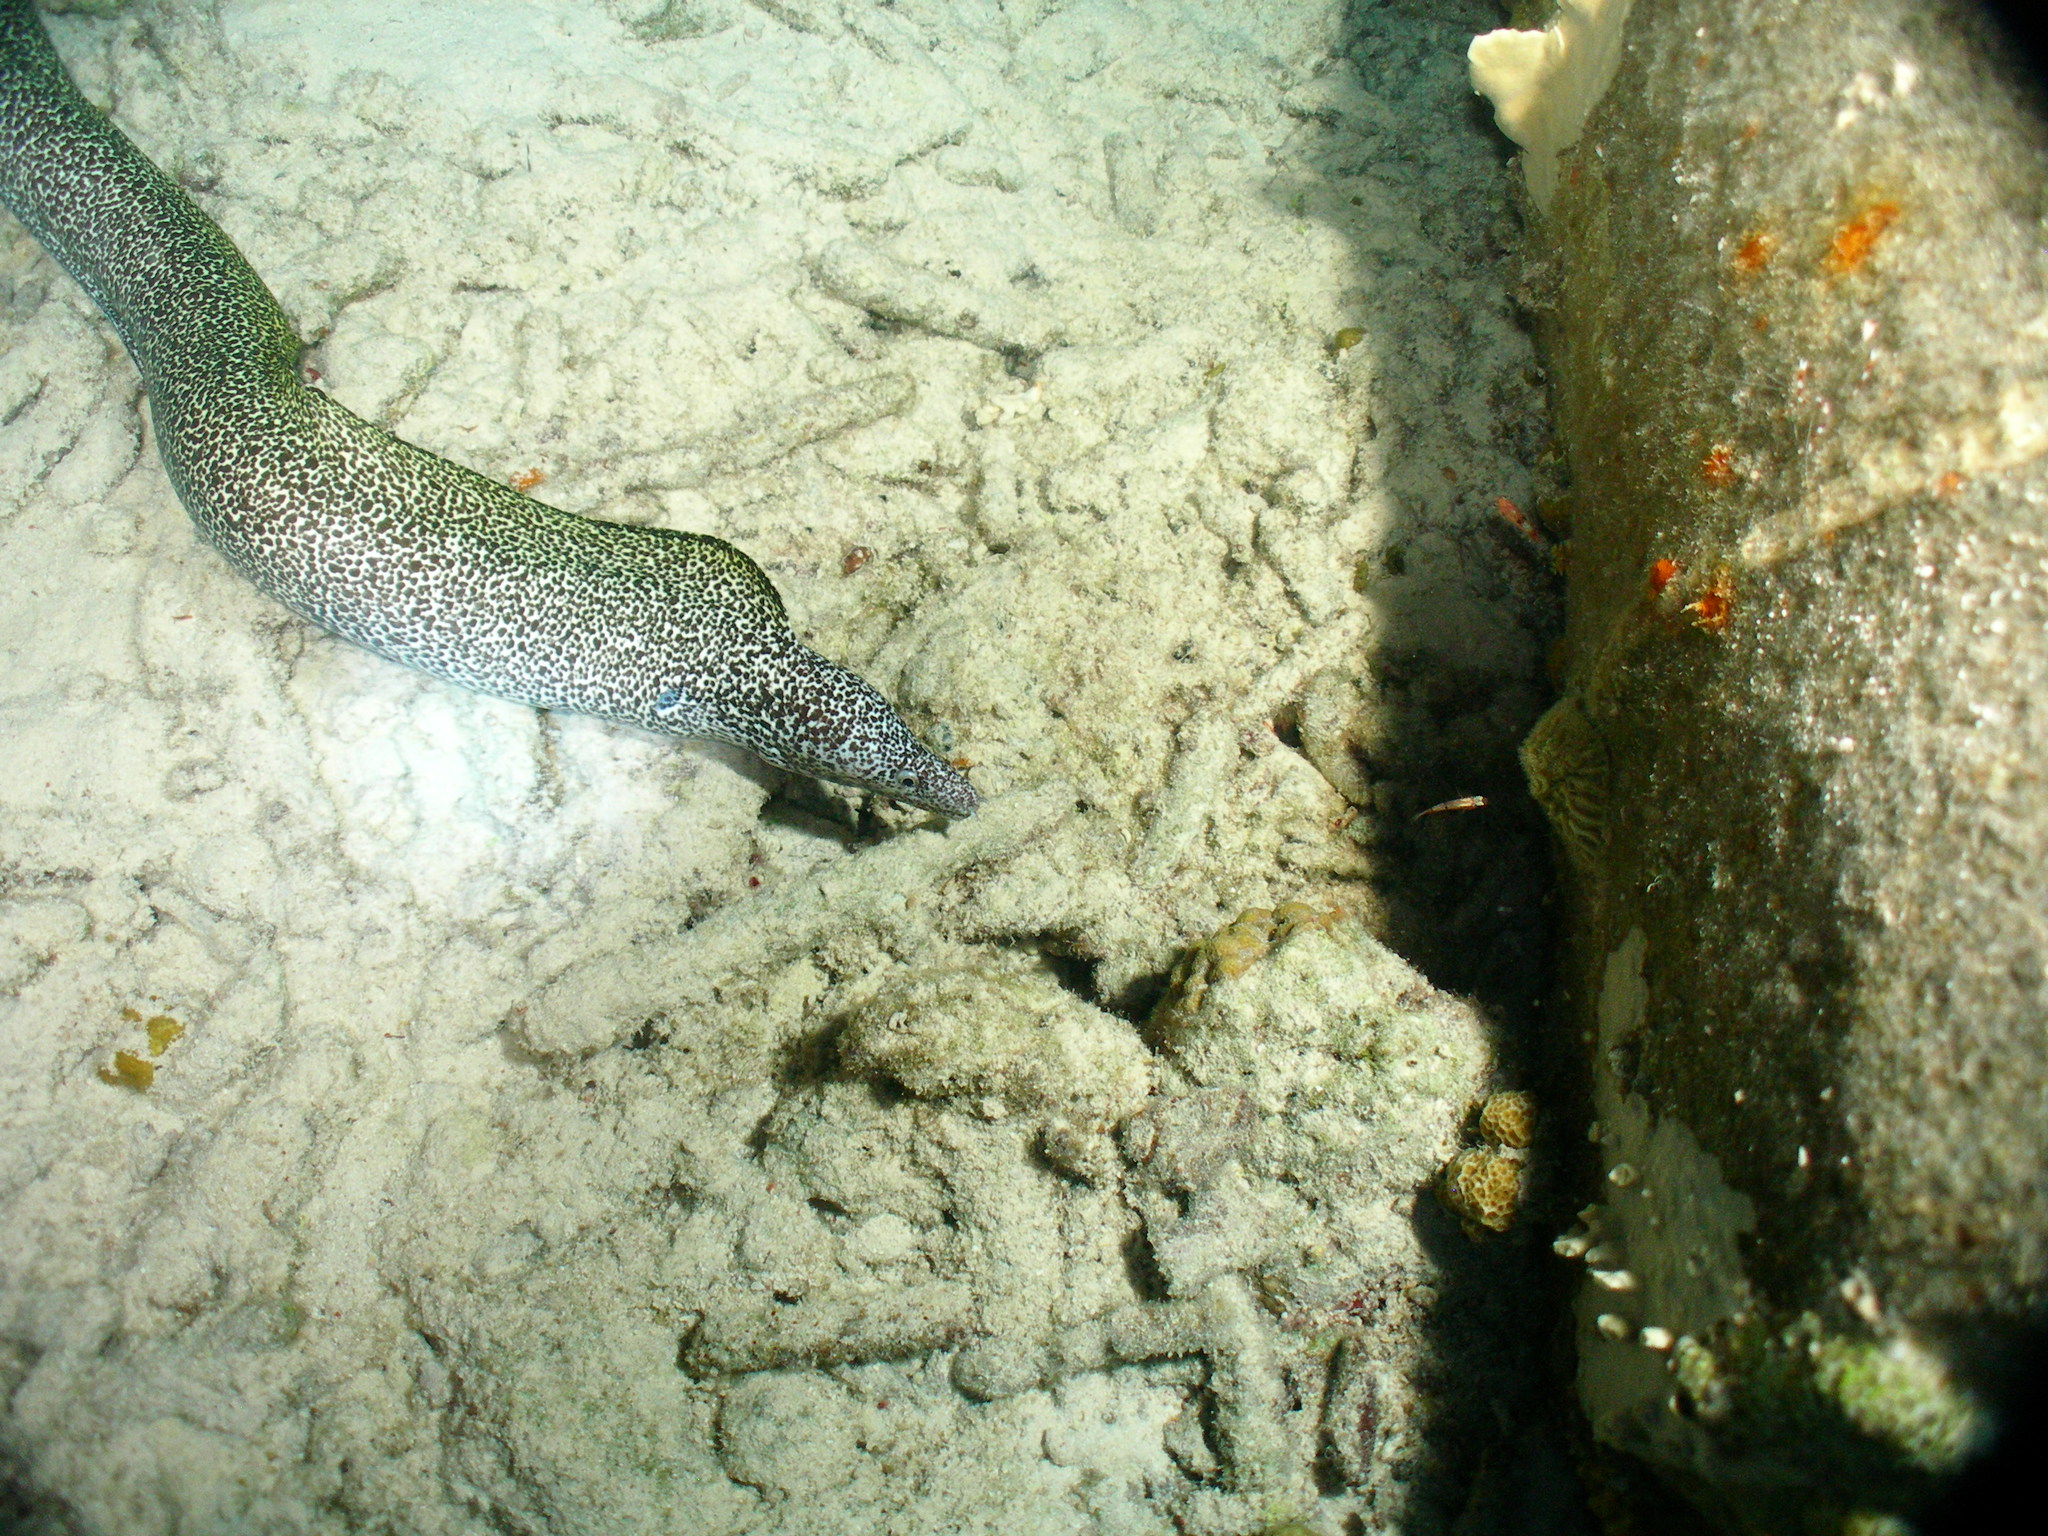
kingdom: Animalia
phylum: Chordata
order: Anguilliformes
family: Muraenidae
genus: Gymnothorax
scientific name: Gymnothorax moringa
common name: Spotted moray
